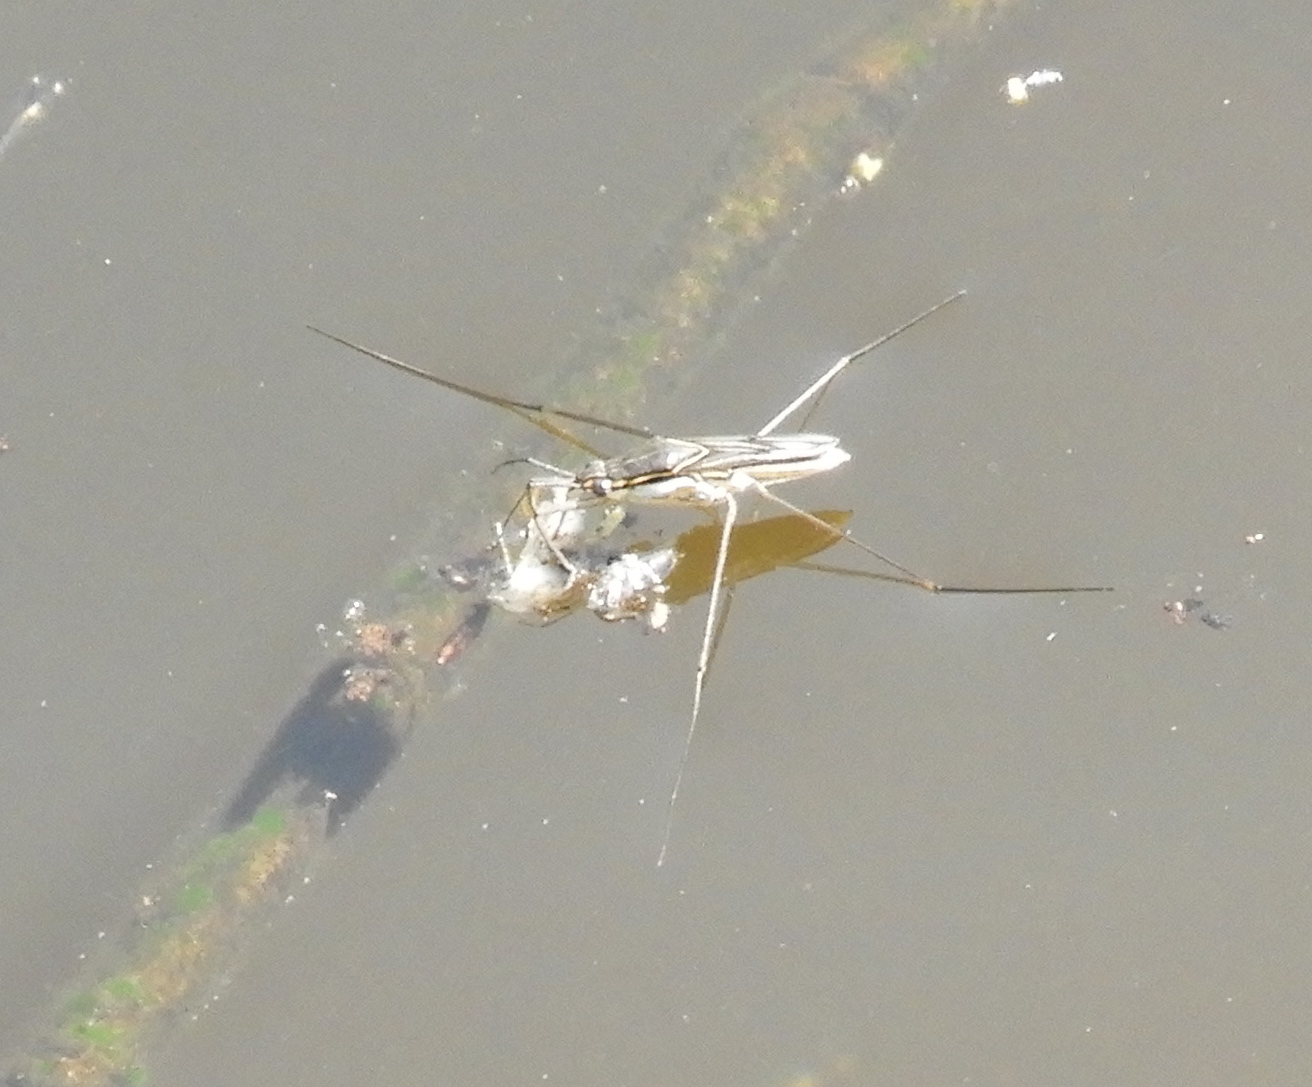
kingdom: Animalia
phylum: Arthropoda
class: Insecta
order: Hemiptera
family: Gerridae
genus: Limnogonus
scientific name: Limnogonus
